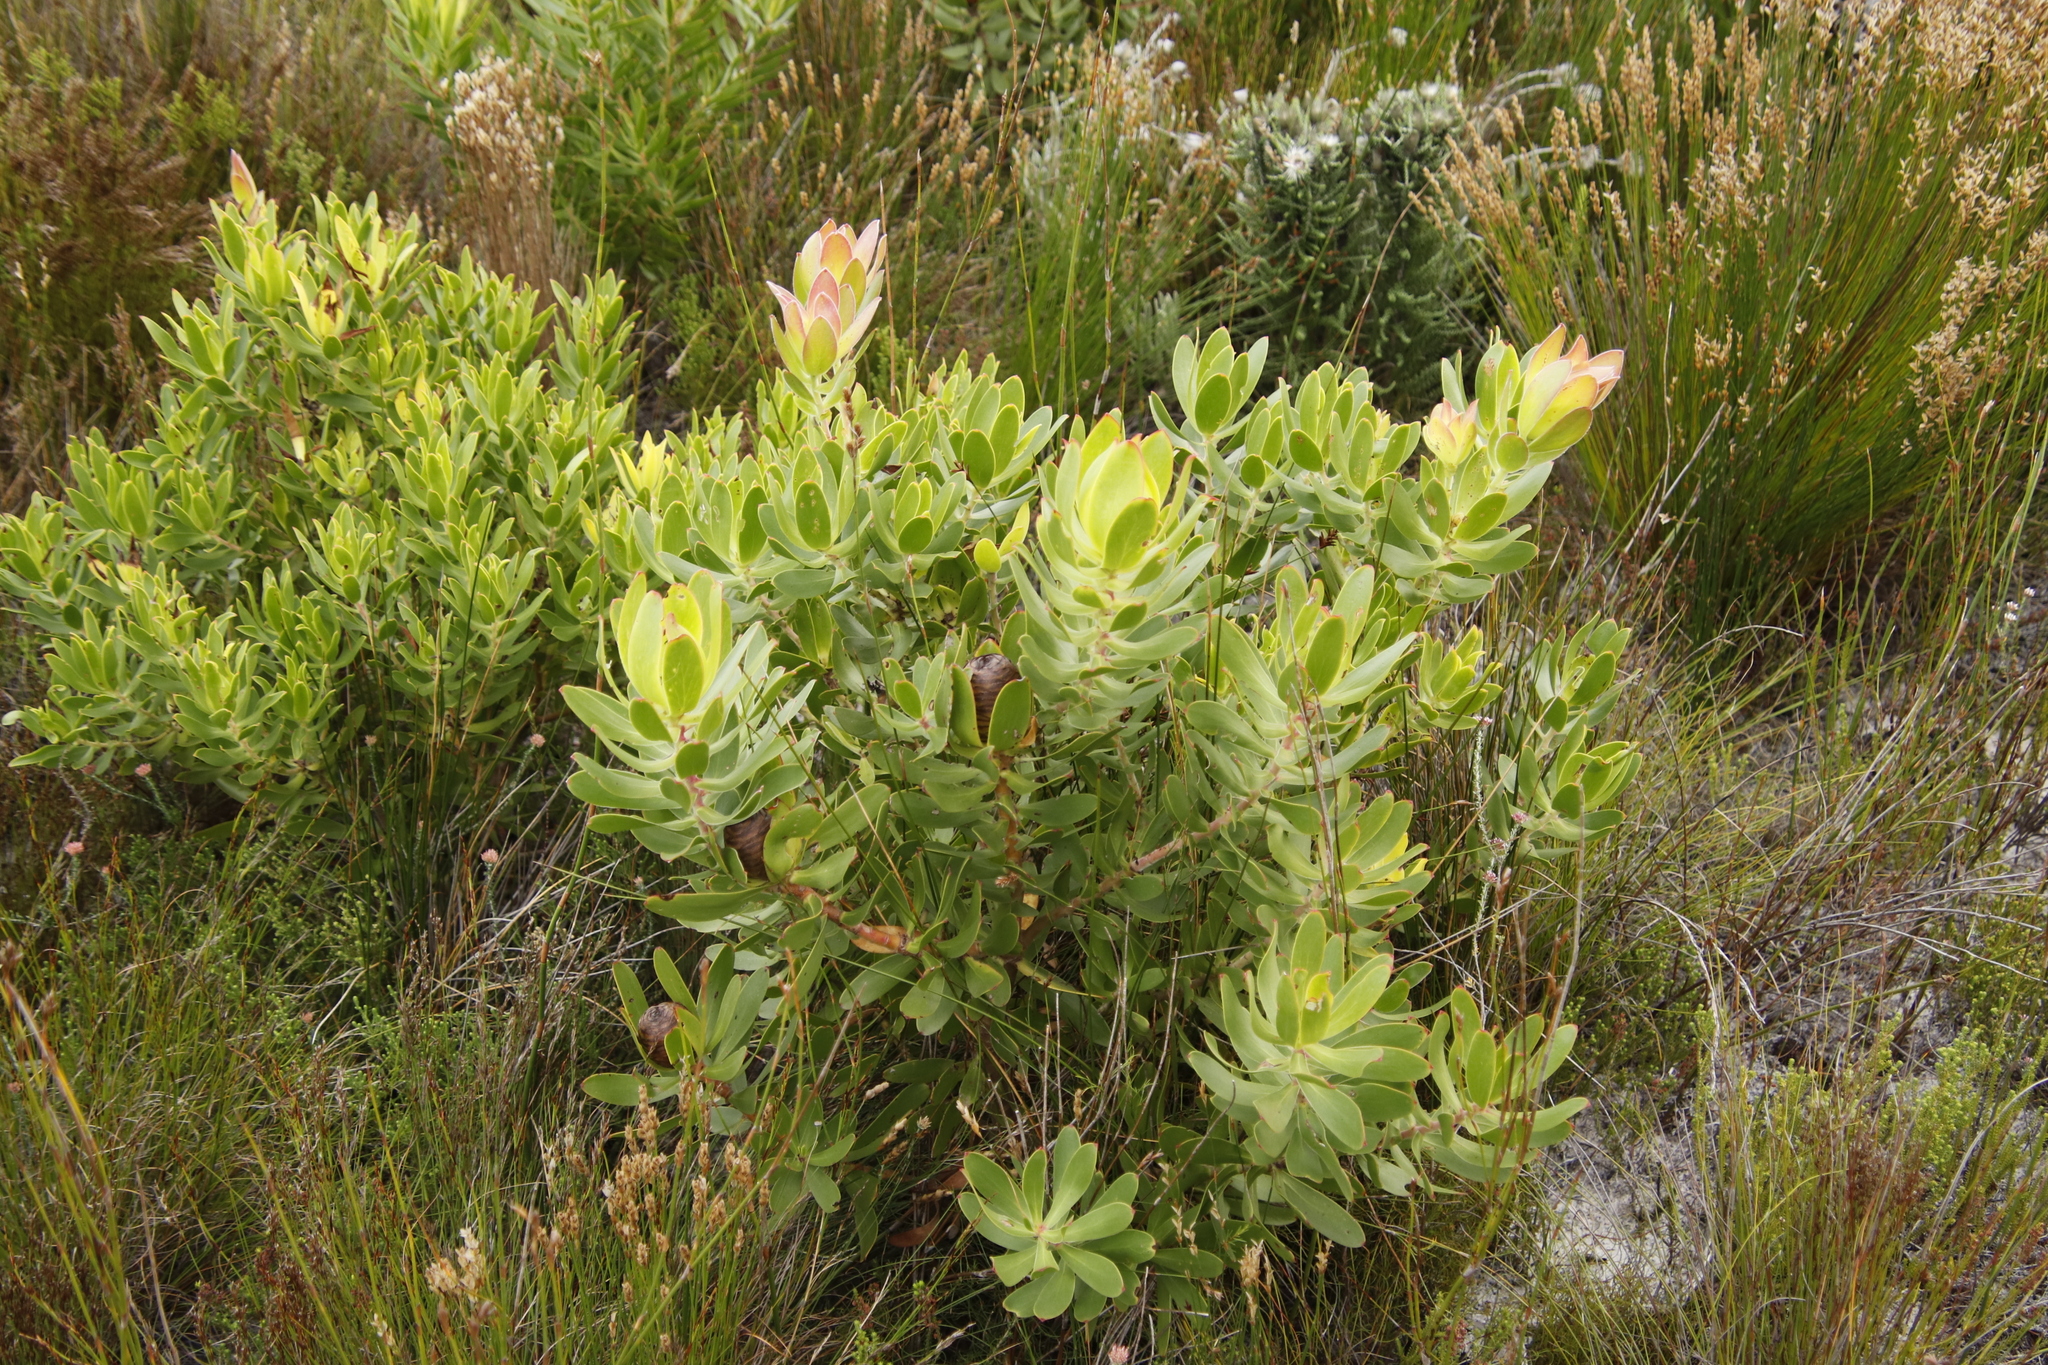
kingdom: Plantae
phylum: Tracheophyta
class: Magnoliopsida
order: Proteales
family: Proteaceae
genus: Leucadendron
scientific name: Leucadendron gandogeri
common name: Broad-leaf conebush
